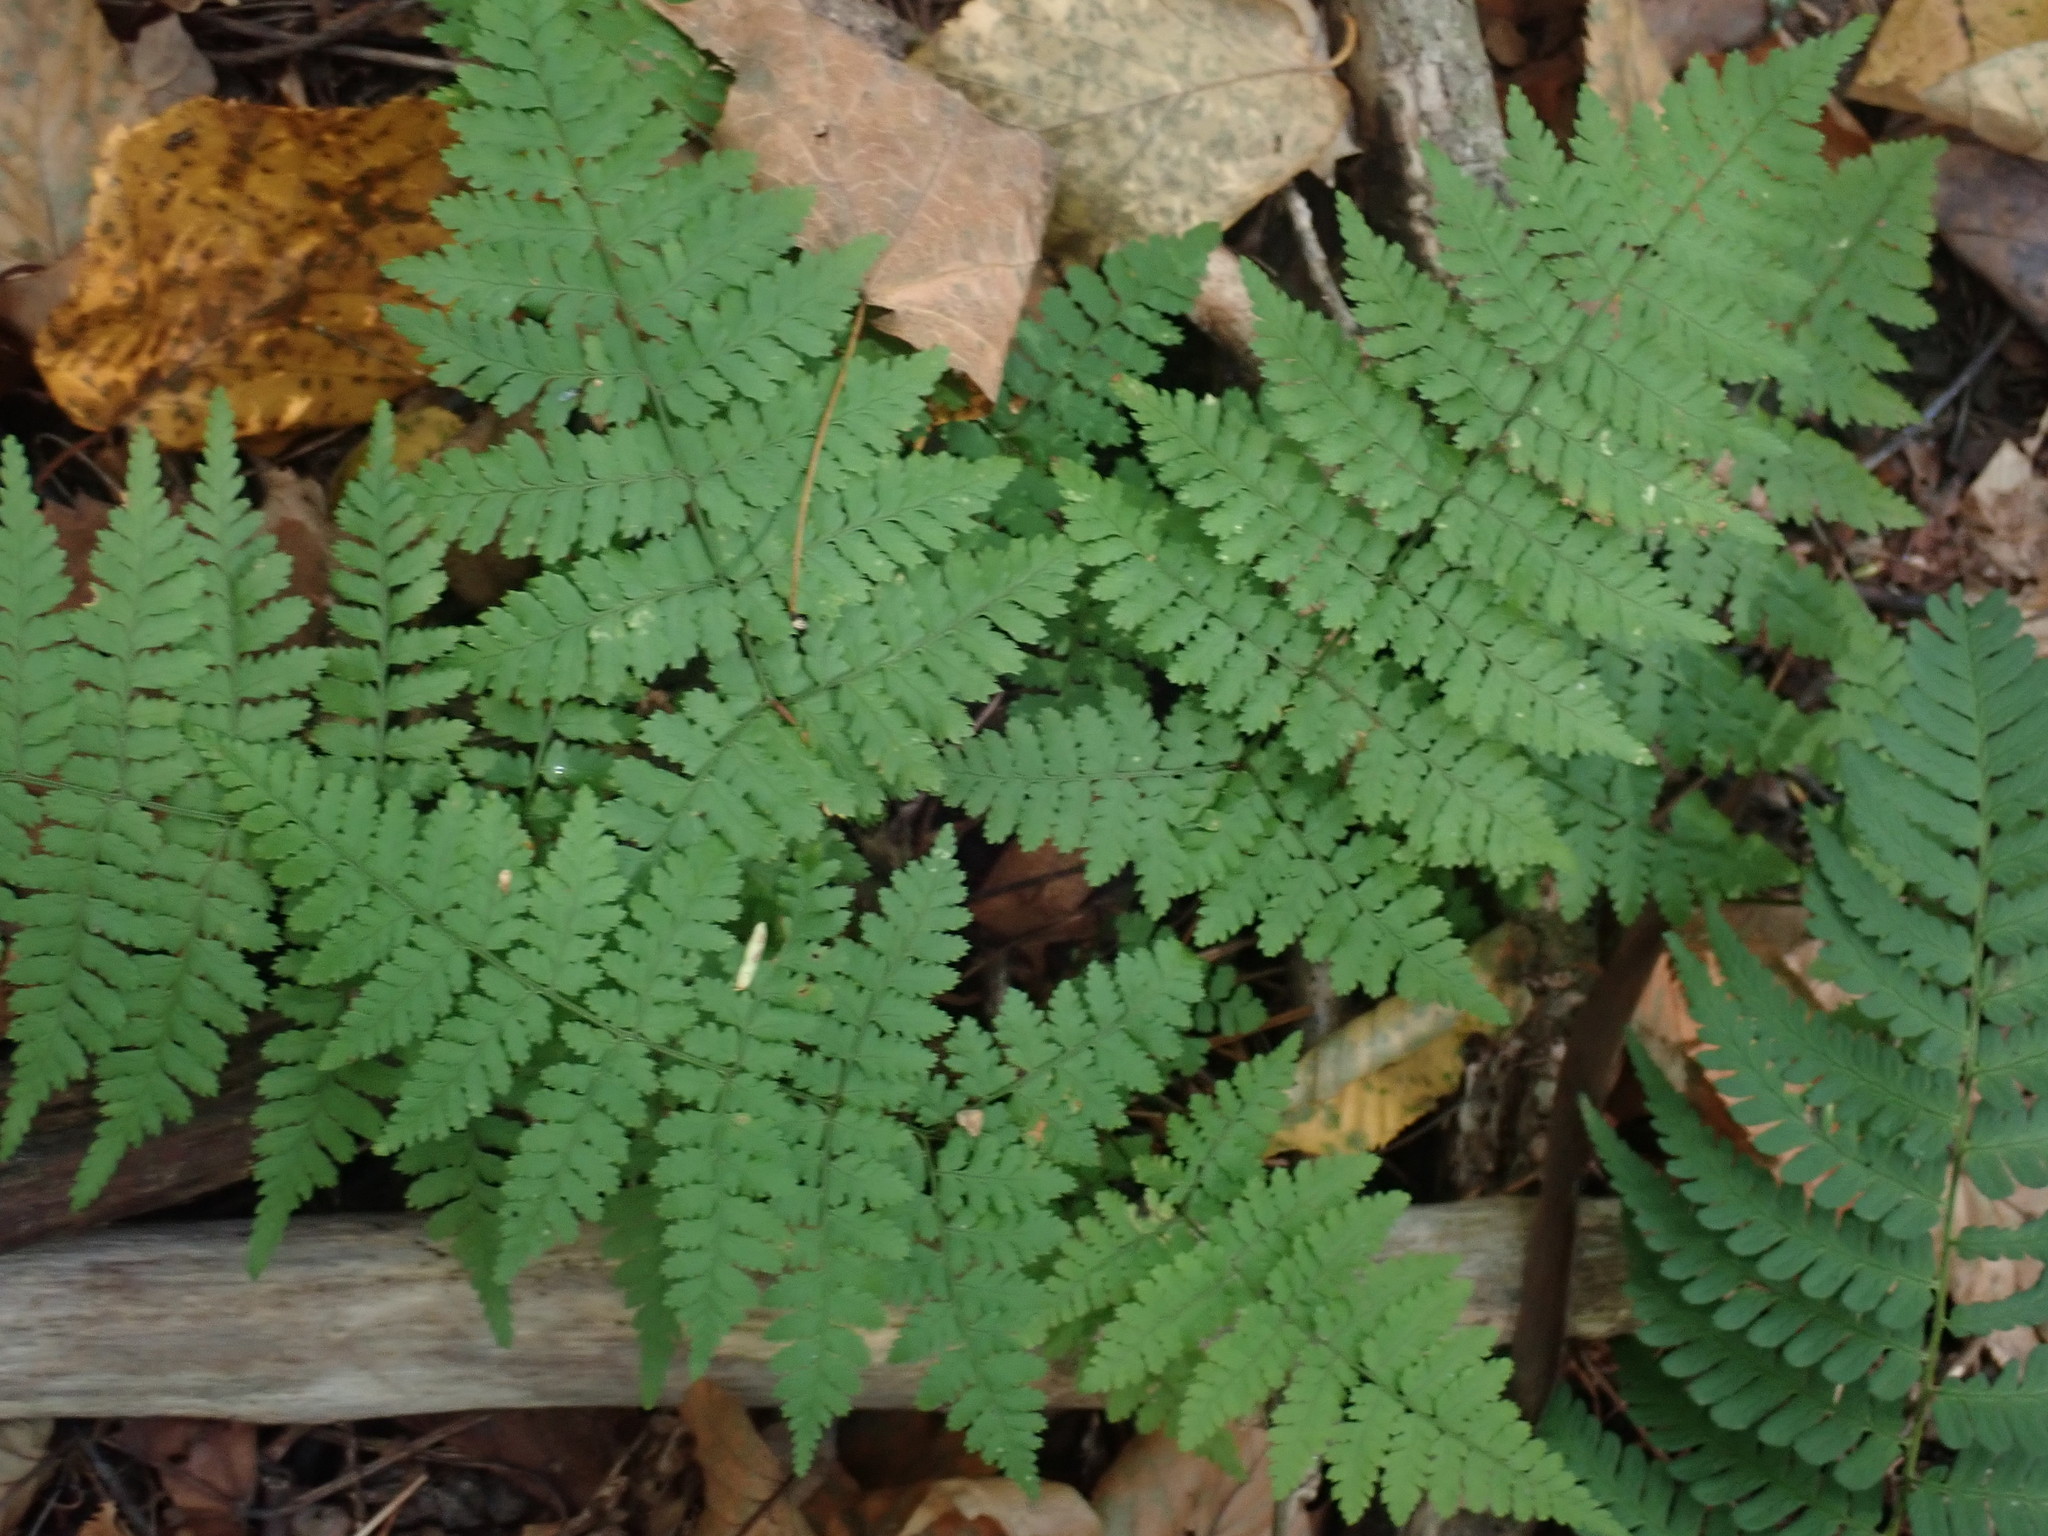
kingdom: Plantae
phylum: Tracheophyta
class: Polypodiopsida
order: Polypodiales
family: Dryopteridaceae
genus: Dryopteris
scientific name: Dryopteris intermedia
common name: Evergreen wood fern
